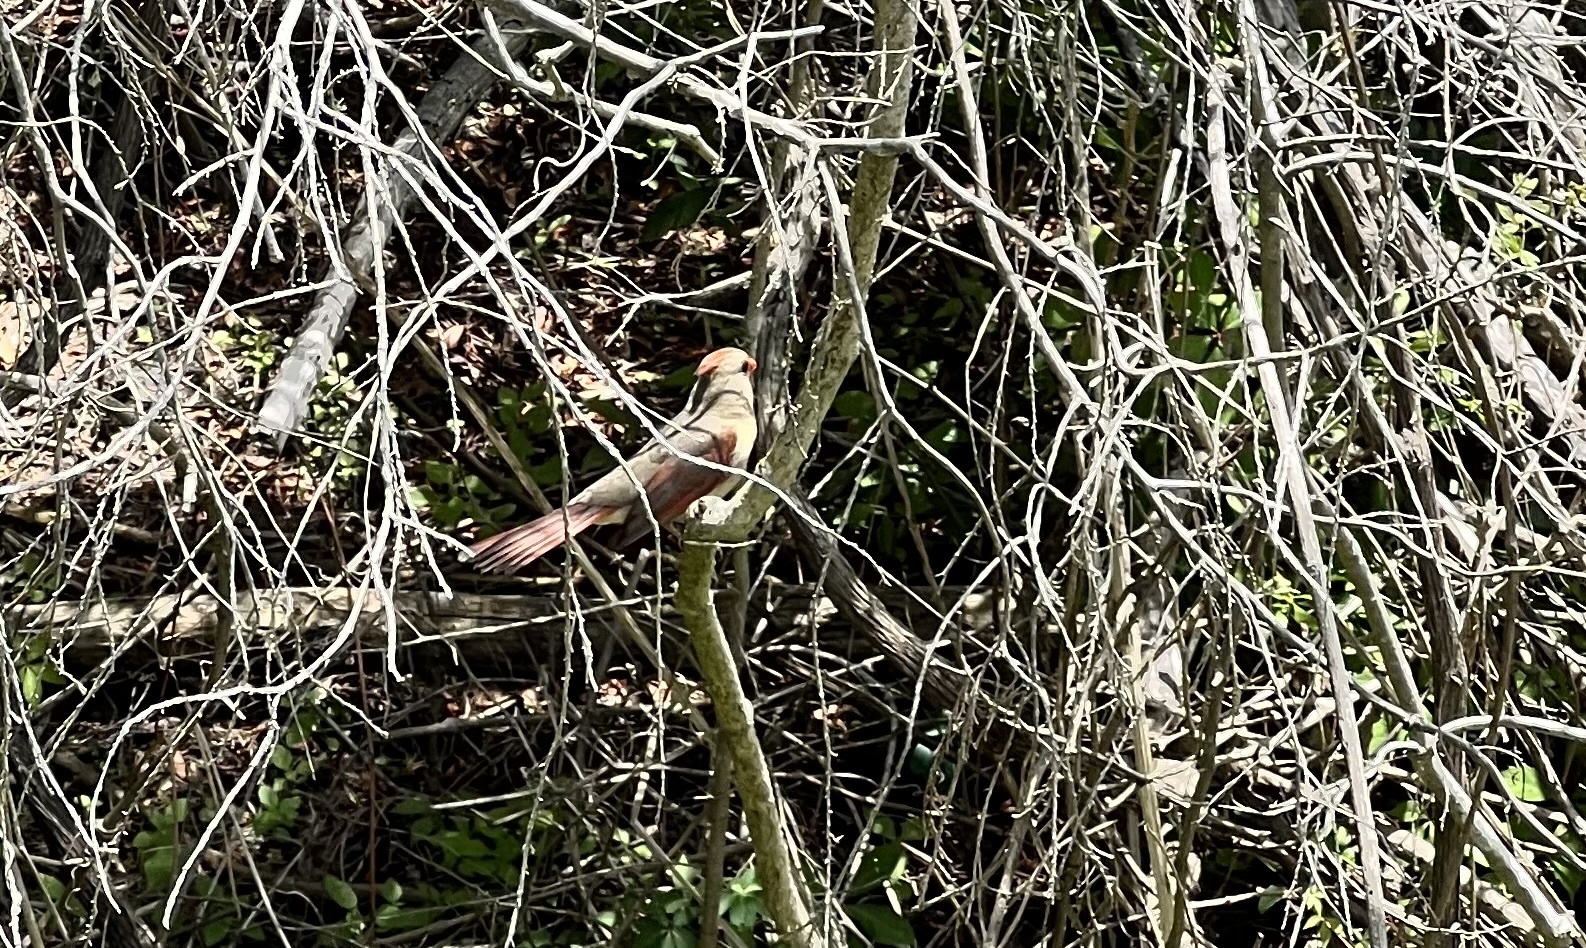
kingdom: Animalia
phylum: Chordata
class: Aves
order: Passeriformes
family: Cardinalidae
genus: Cardinalis
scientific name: Cardinalis cardinalis
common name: Northern cardinal
